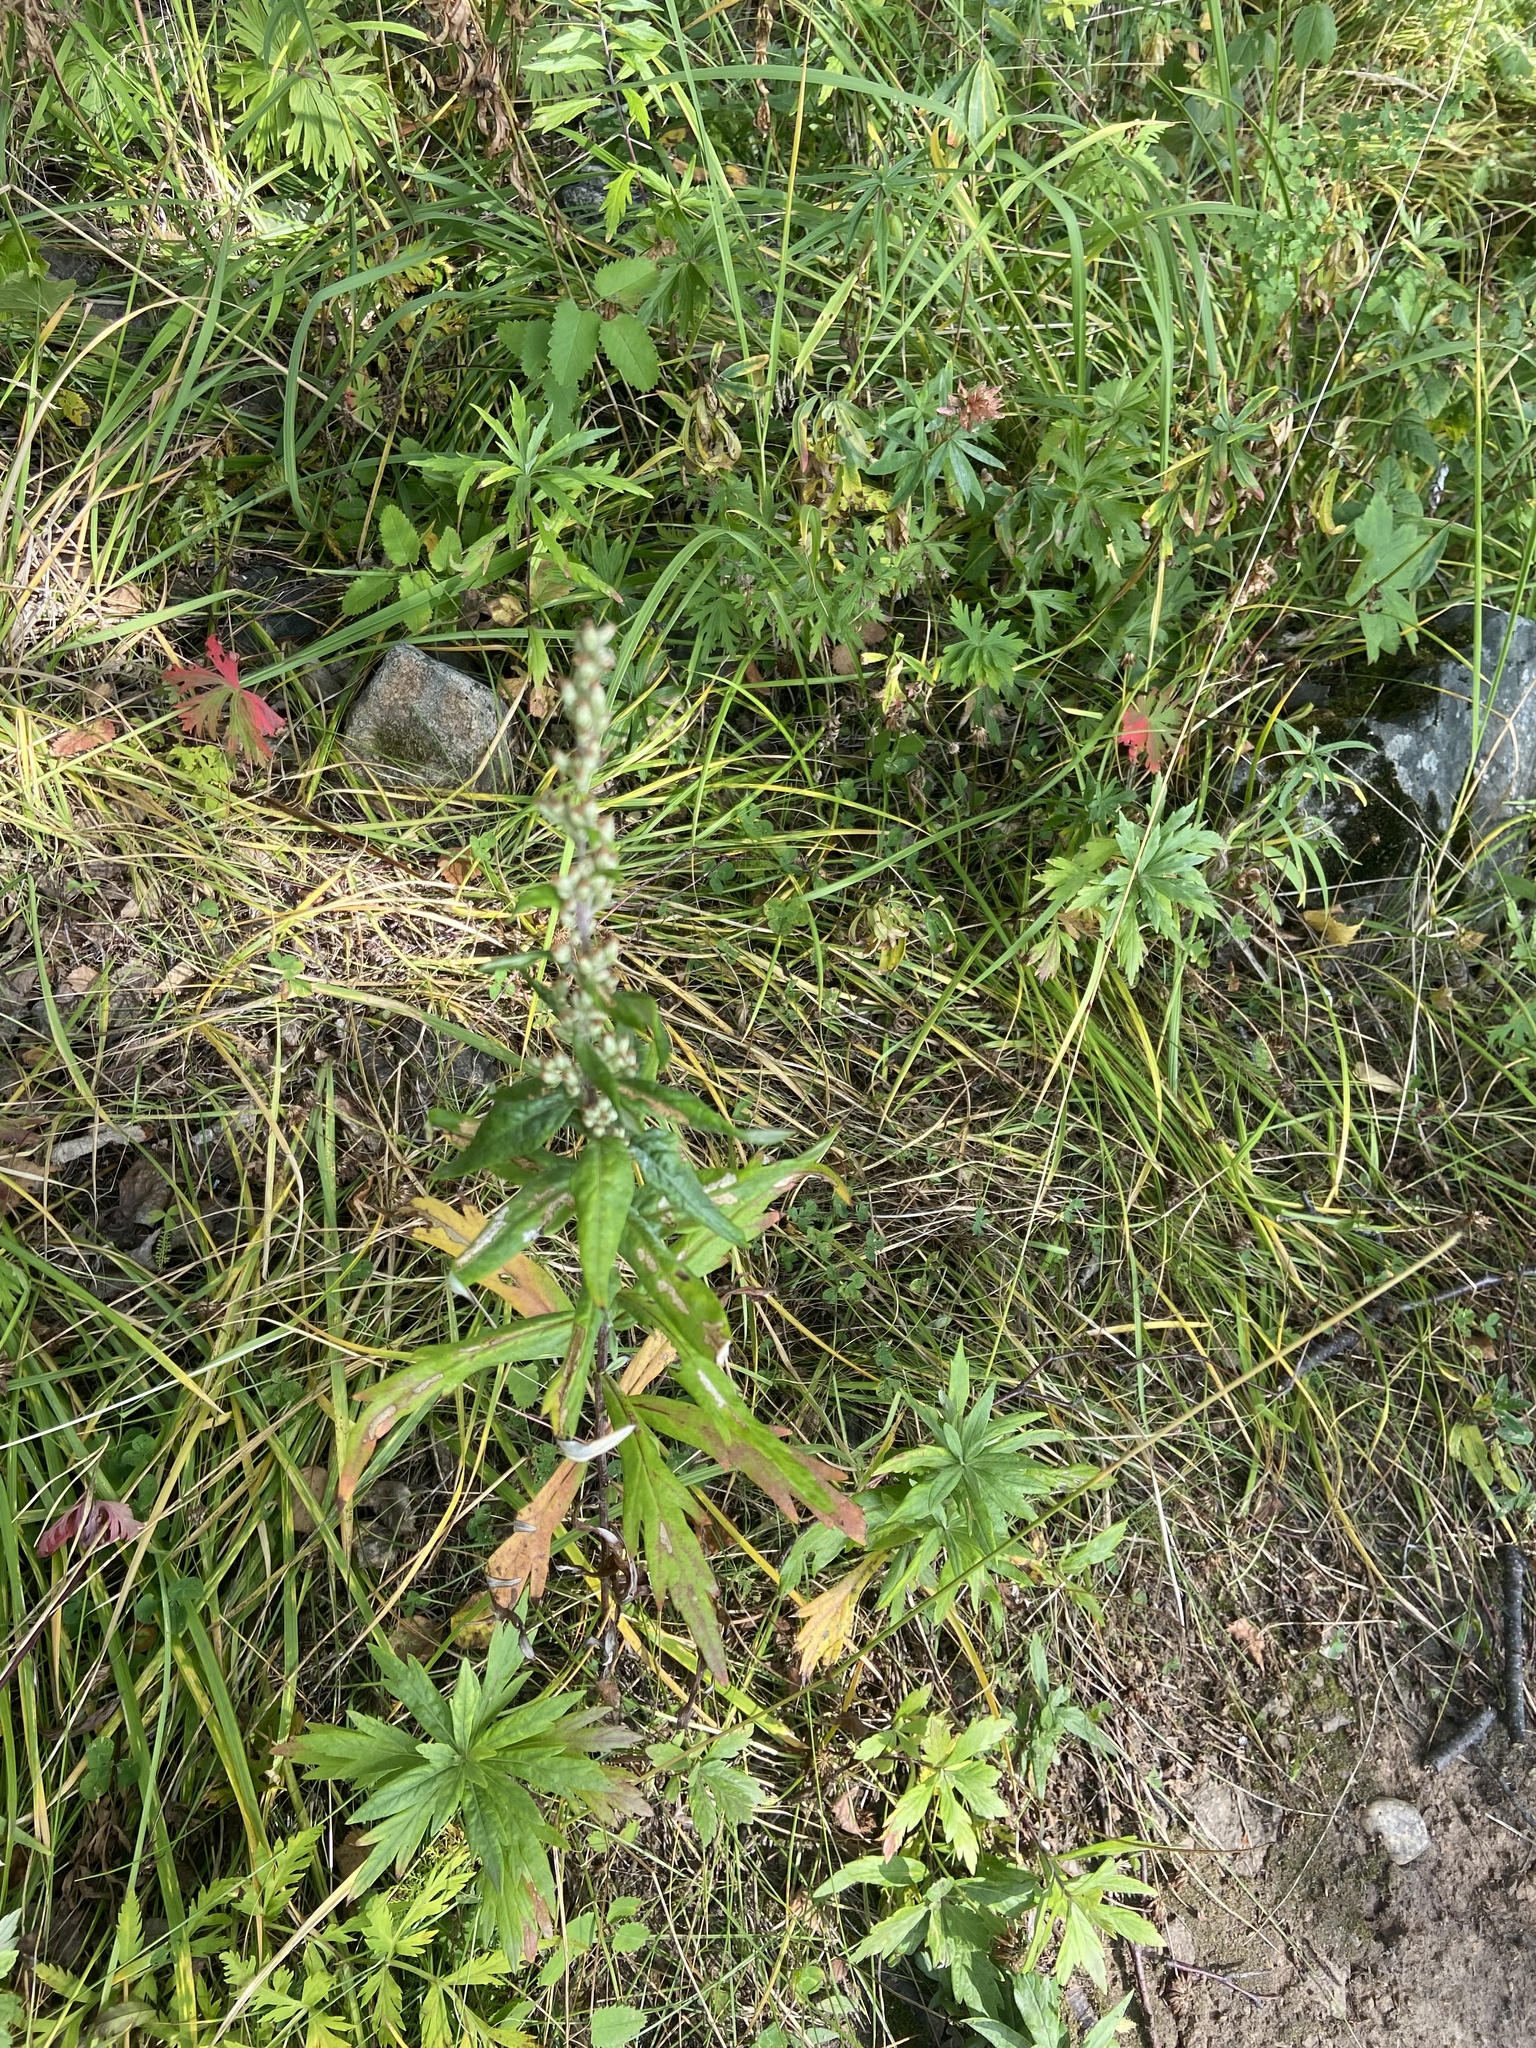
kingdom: Plantae
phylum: Tracheophyta
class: Magnoliopsida
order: Asterales
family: Asteraceae
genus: Artemisia
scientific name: Artemisia integrifolia
